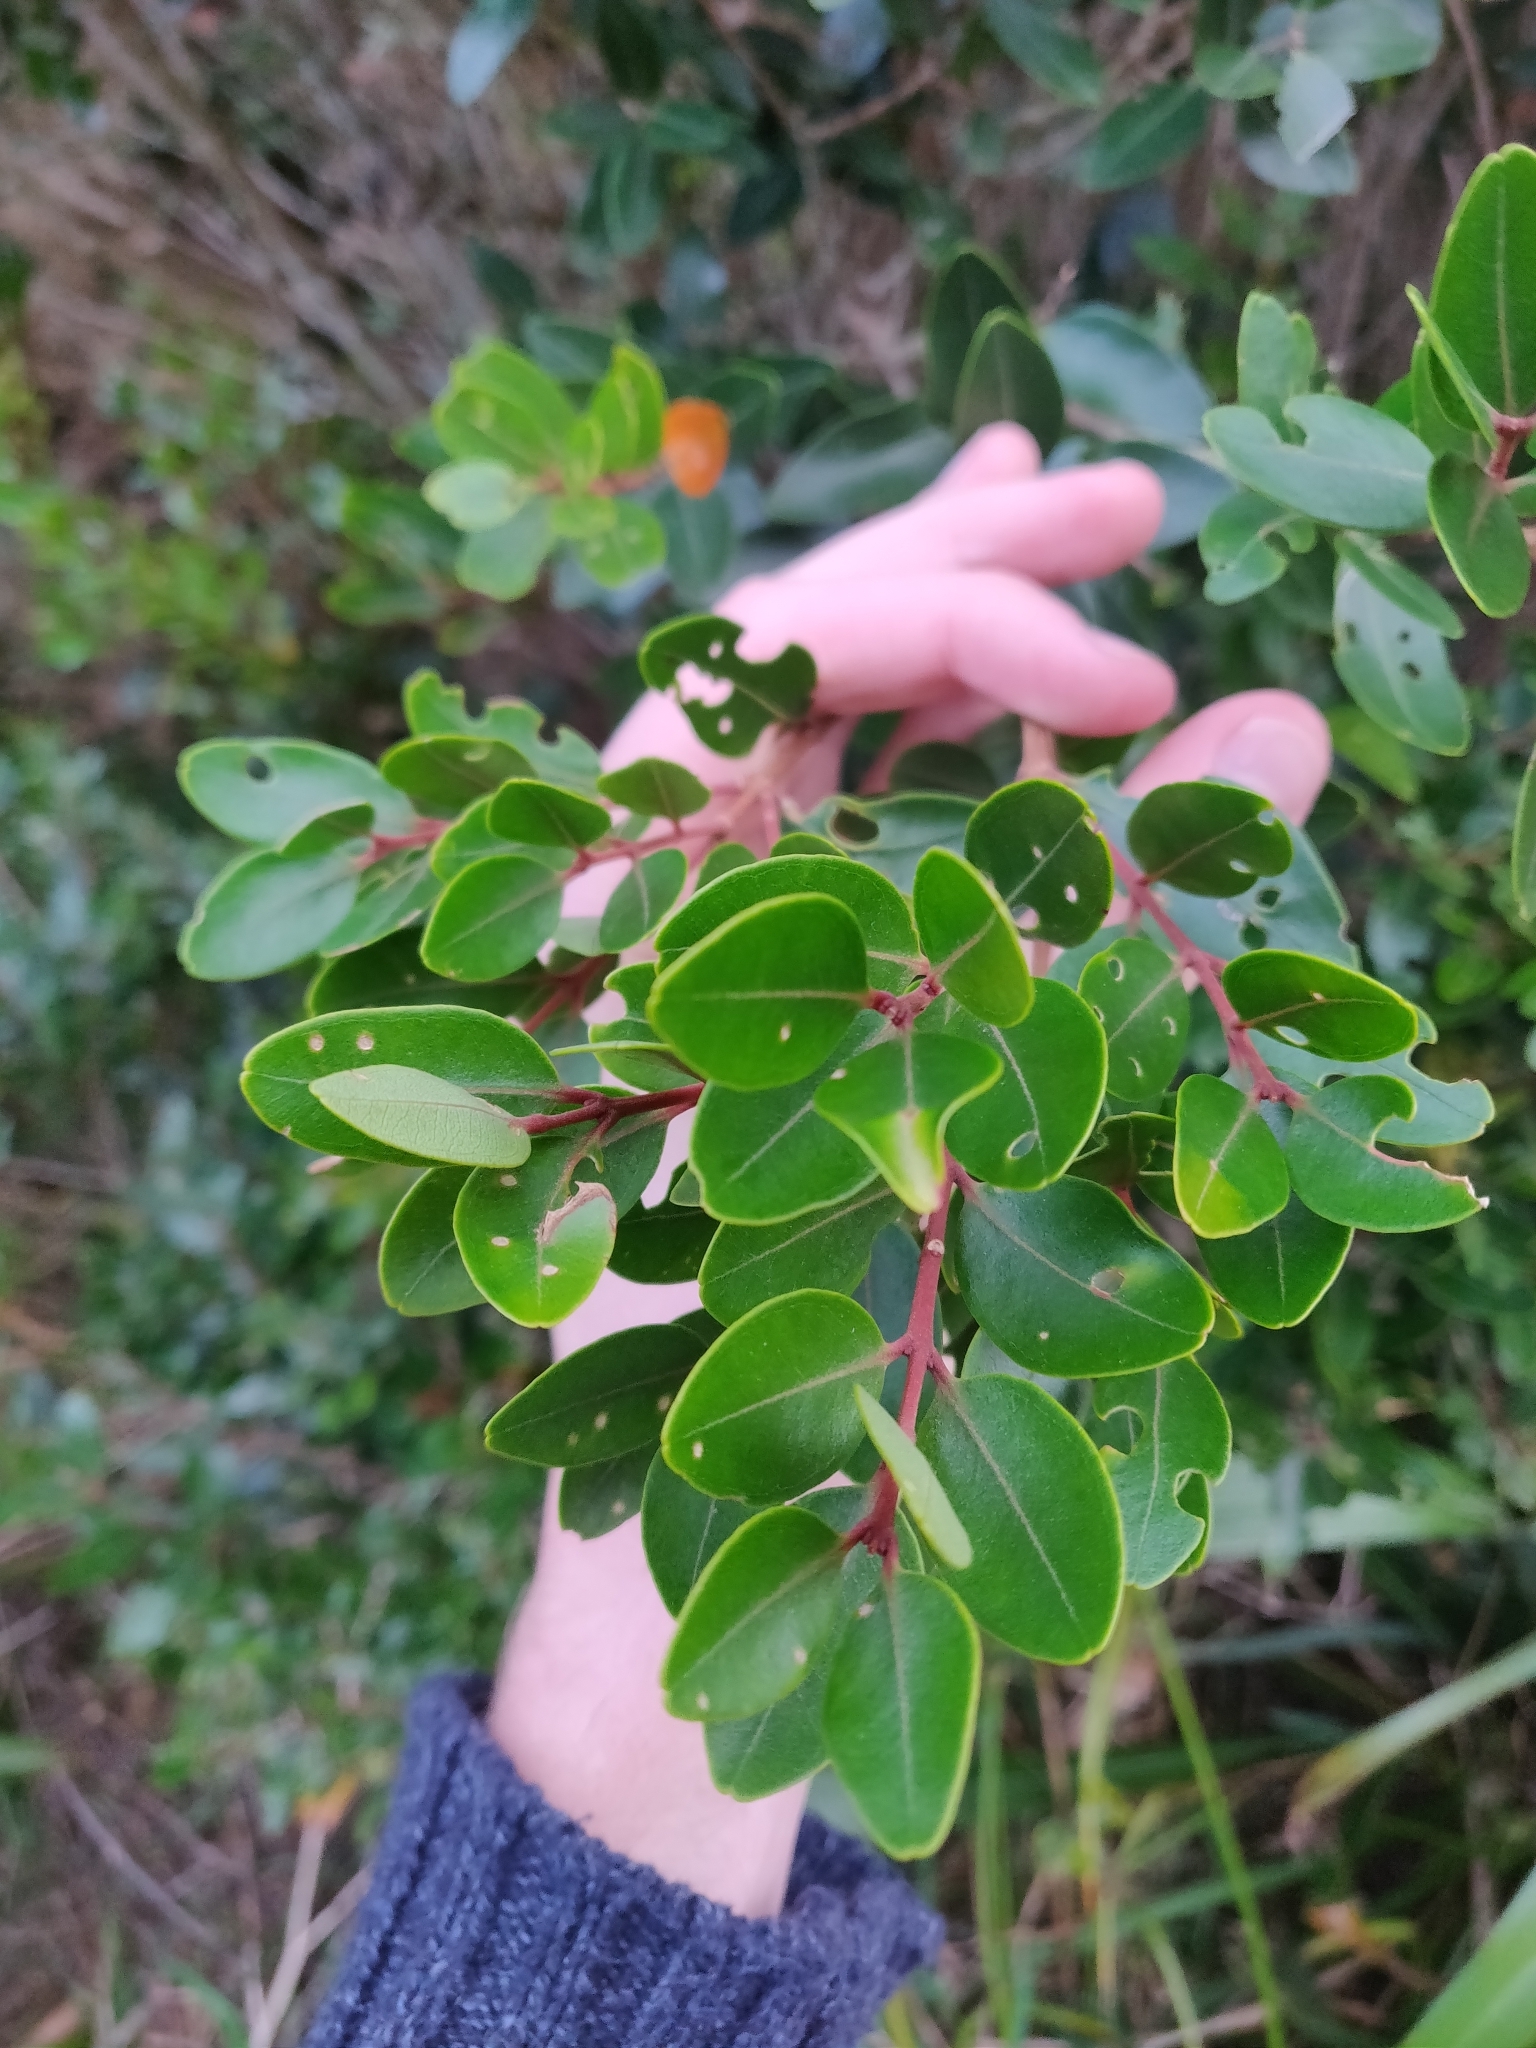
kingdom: Plantae
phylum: Tracheophyta
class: Magnoliopsida
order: Myrtales
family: Myrtaceae
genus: Metrosideros
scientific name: Metrosideros robusta
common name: Northern rata
